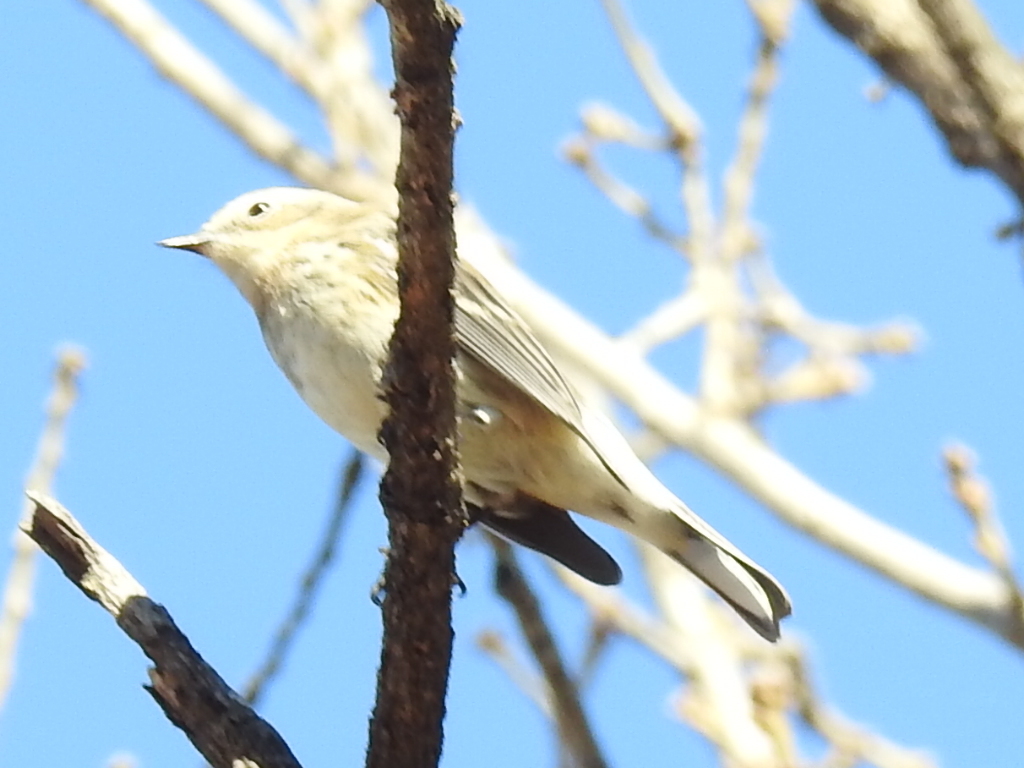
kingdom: Animalia
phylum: Chordata
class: Aves
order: Passeriformes
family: Parulidae
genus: Setophaga
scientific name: Setophaga coronata
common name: Myrtle warbler
